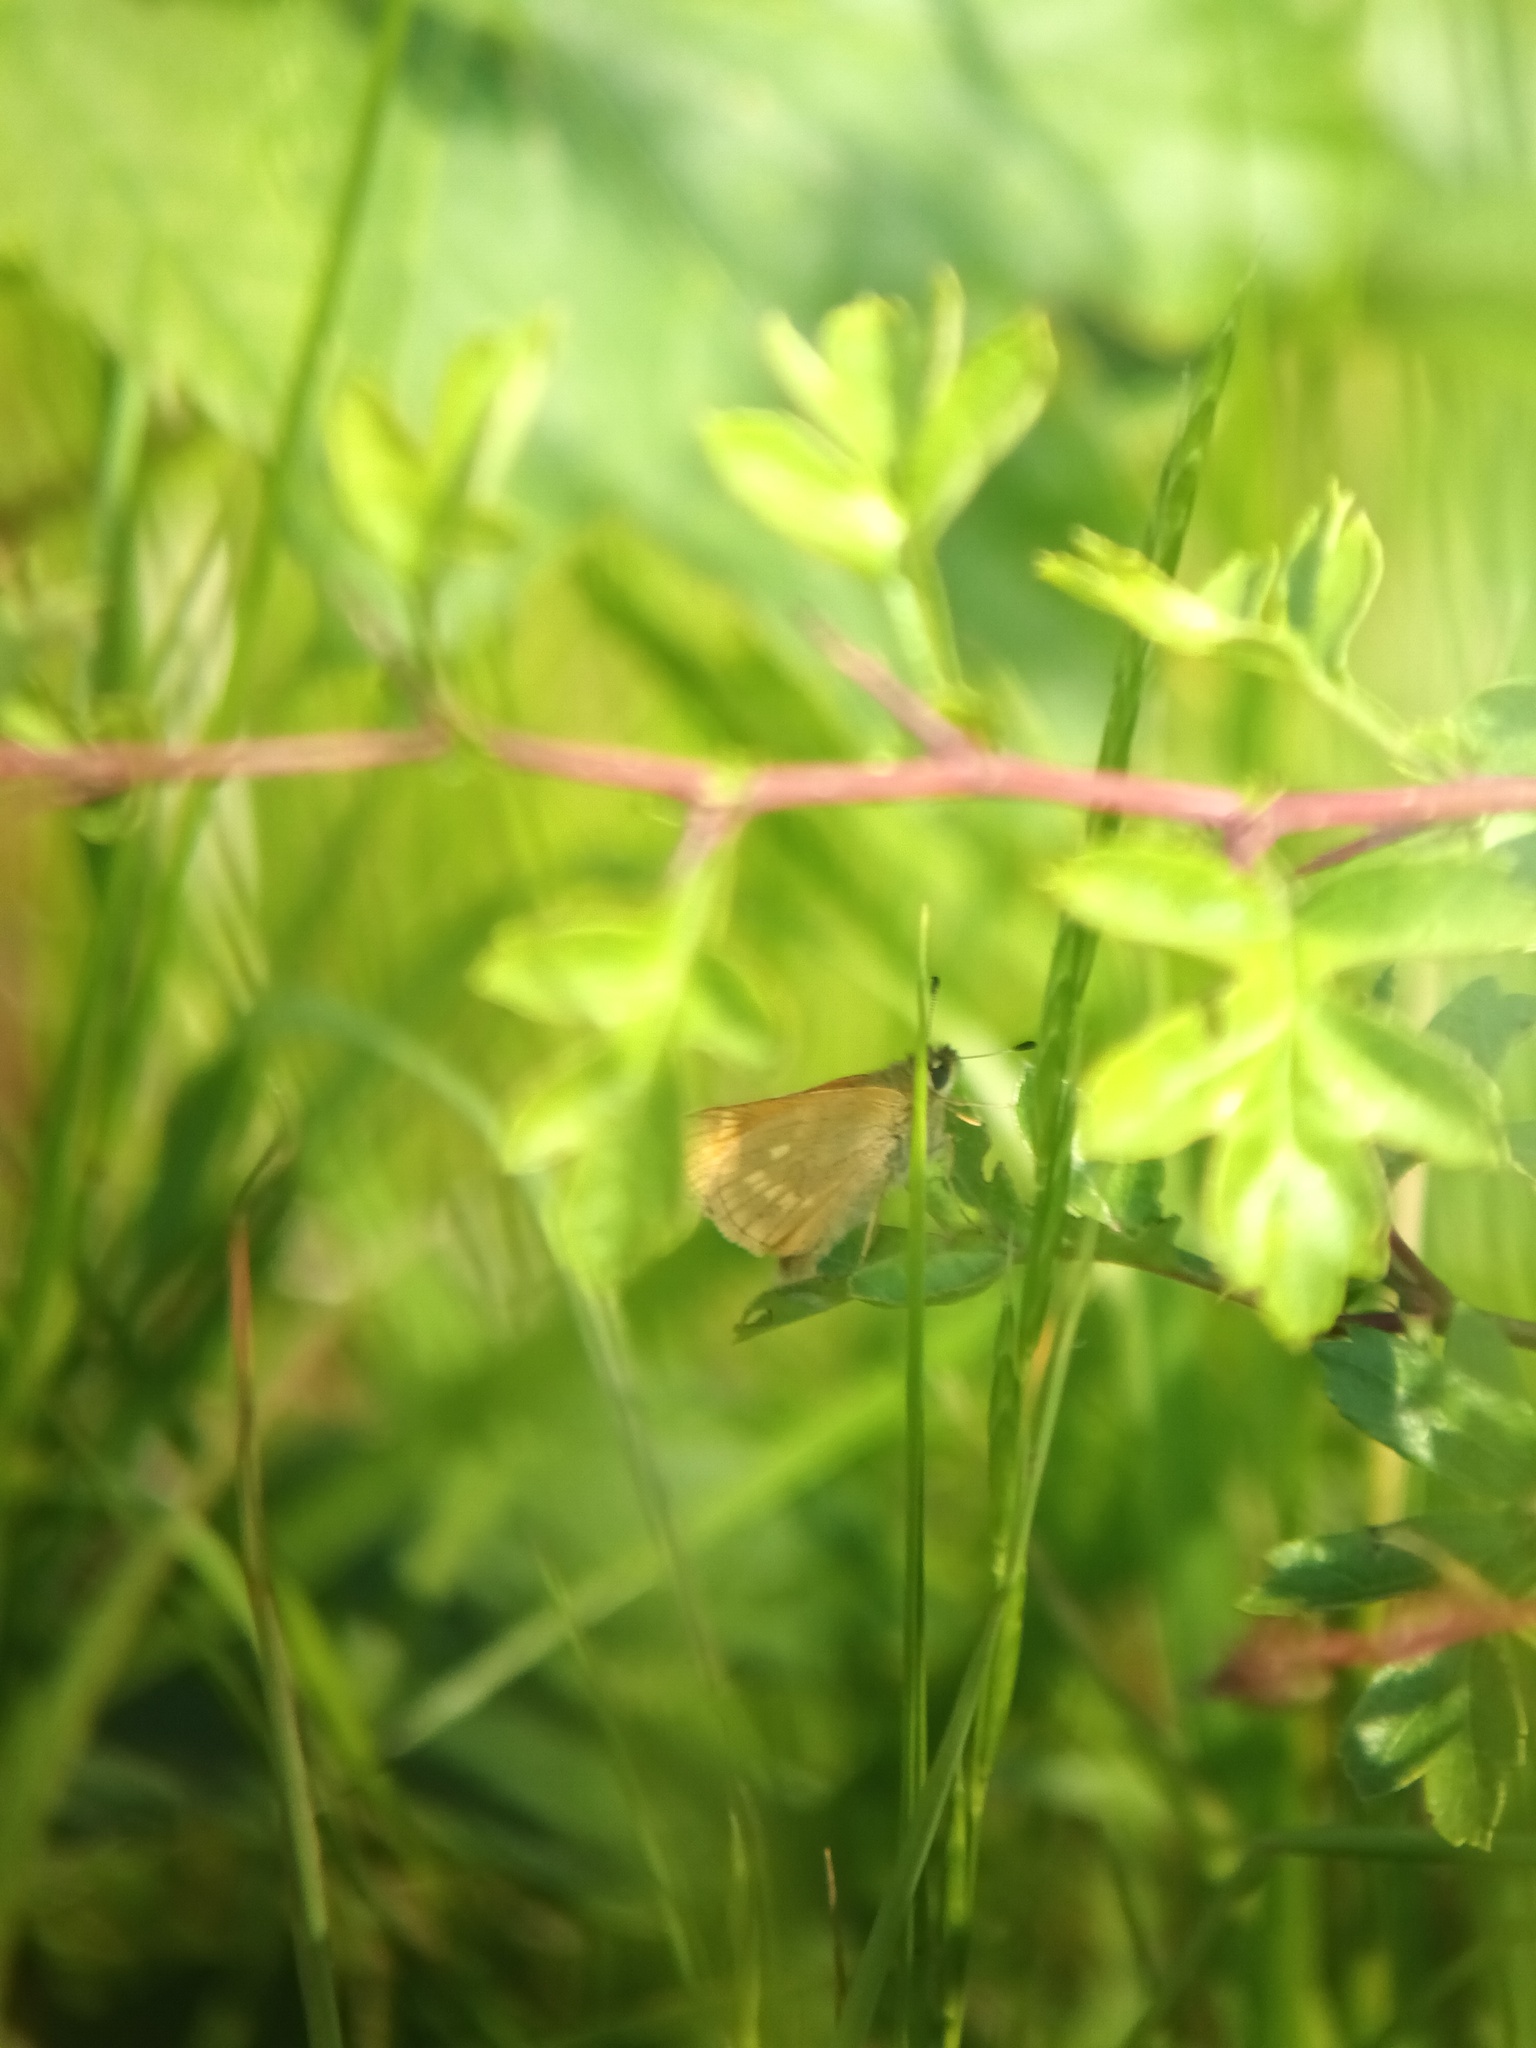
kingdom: Animalia
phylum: Arthropoda
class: Insecta
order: Lepidoptera
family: Hesperiidae
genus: Ochlodes
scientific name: Ochlodes venata
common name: Large skipper
